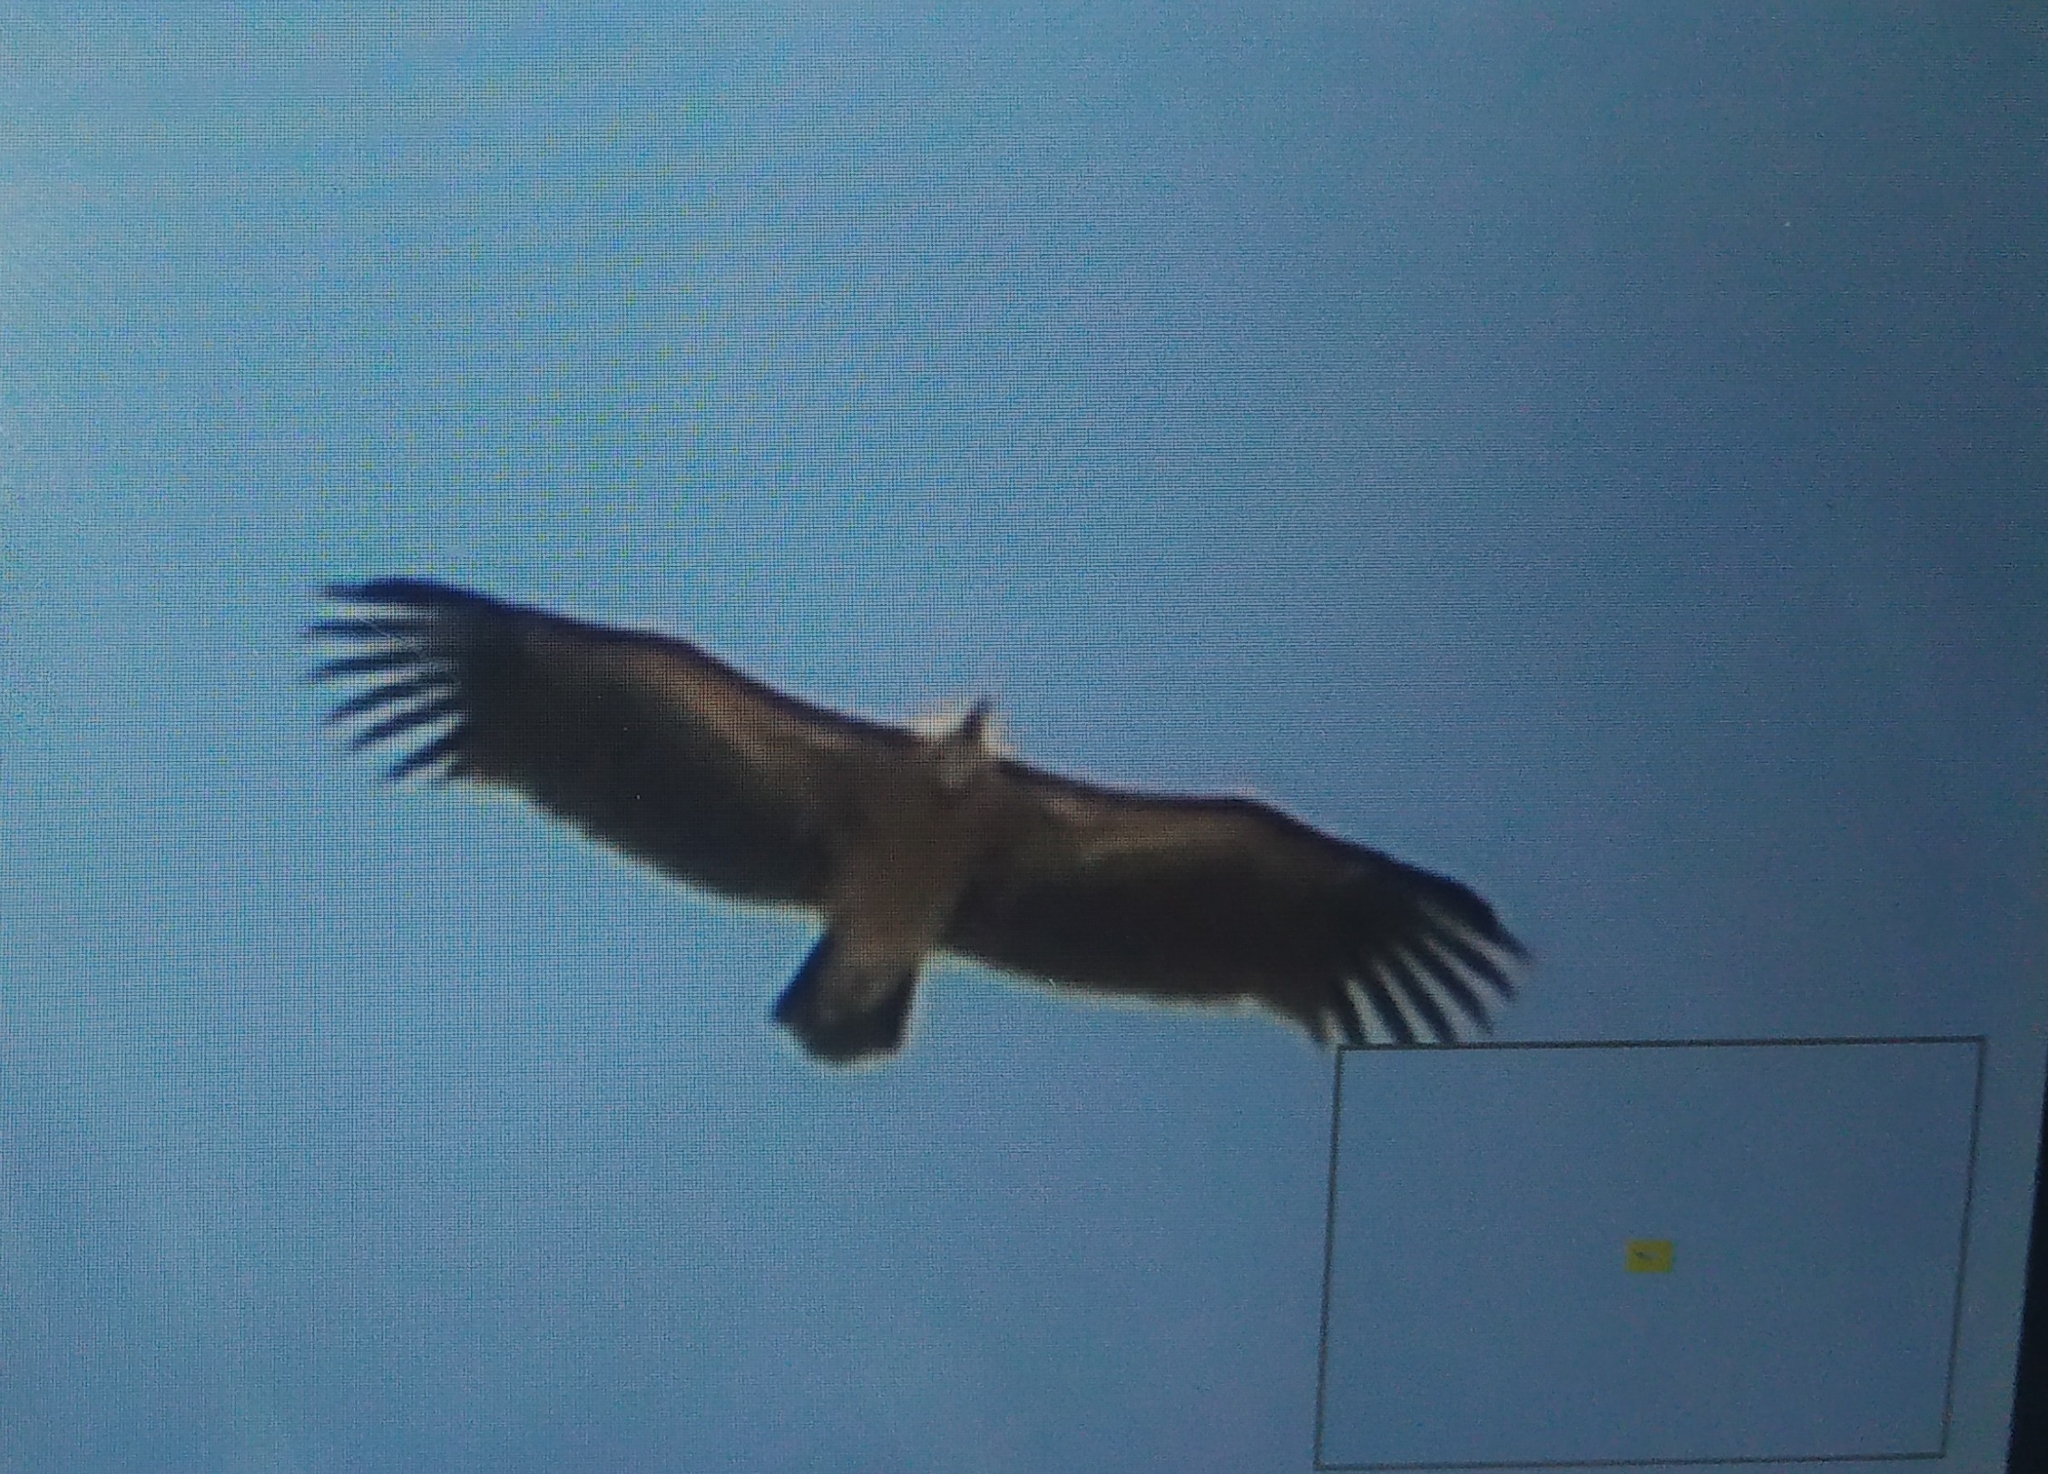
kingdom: Animalia
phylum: Chordata
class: Aves
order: Accipitriformes
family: Accipitridae
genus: Gyps
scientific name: Gyps indicus
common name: Indian vulture
